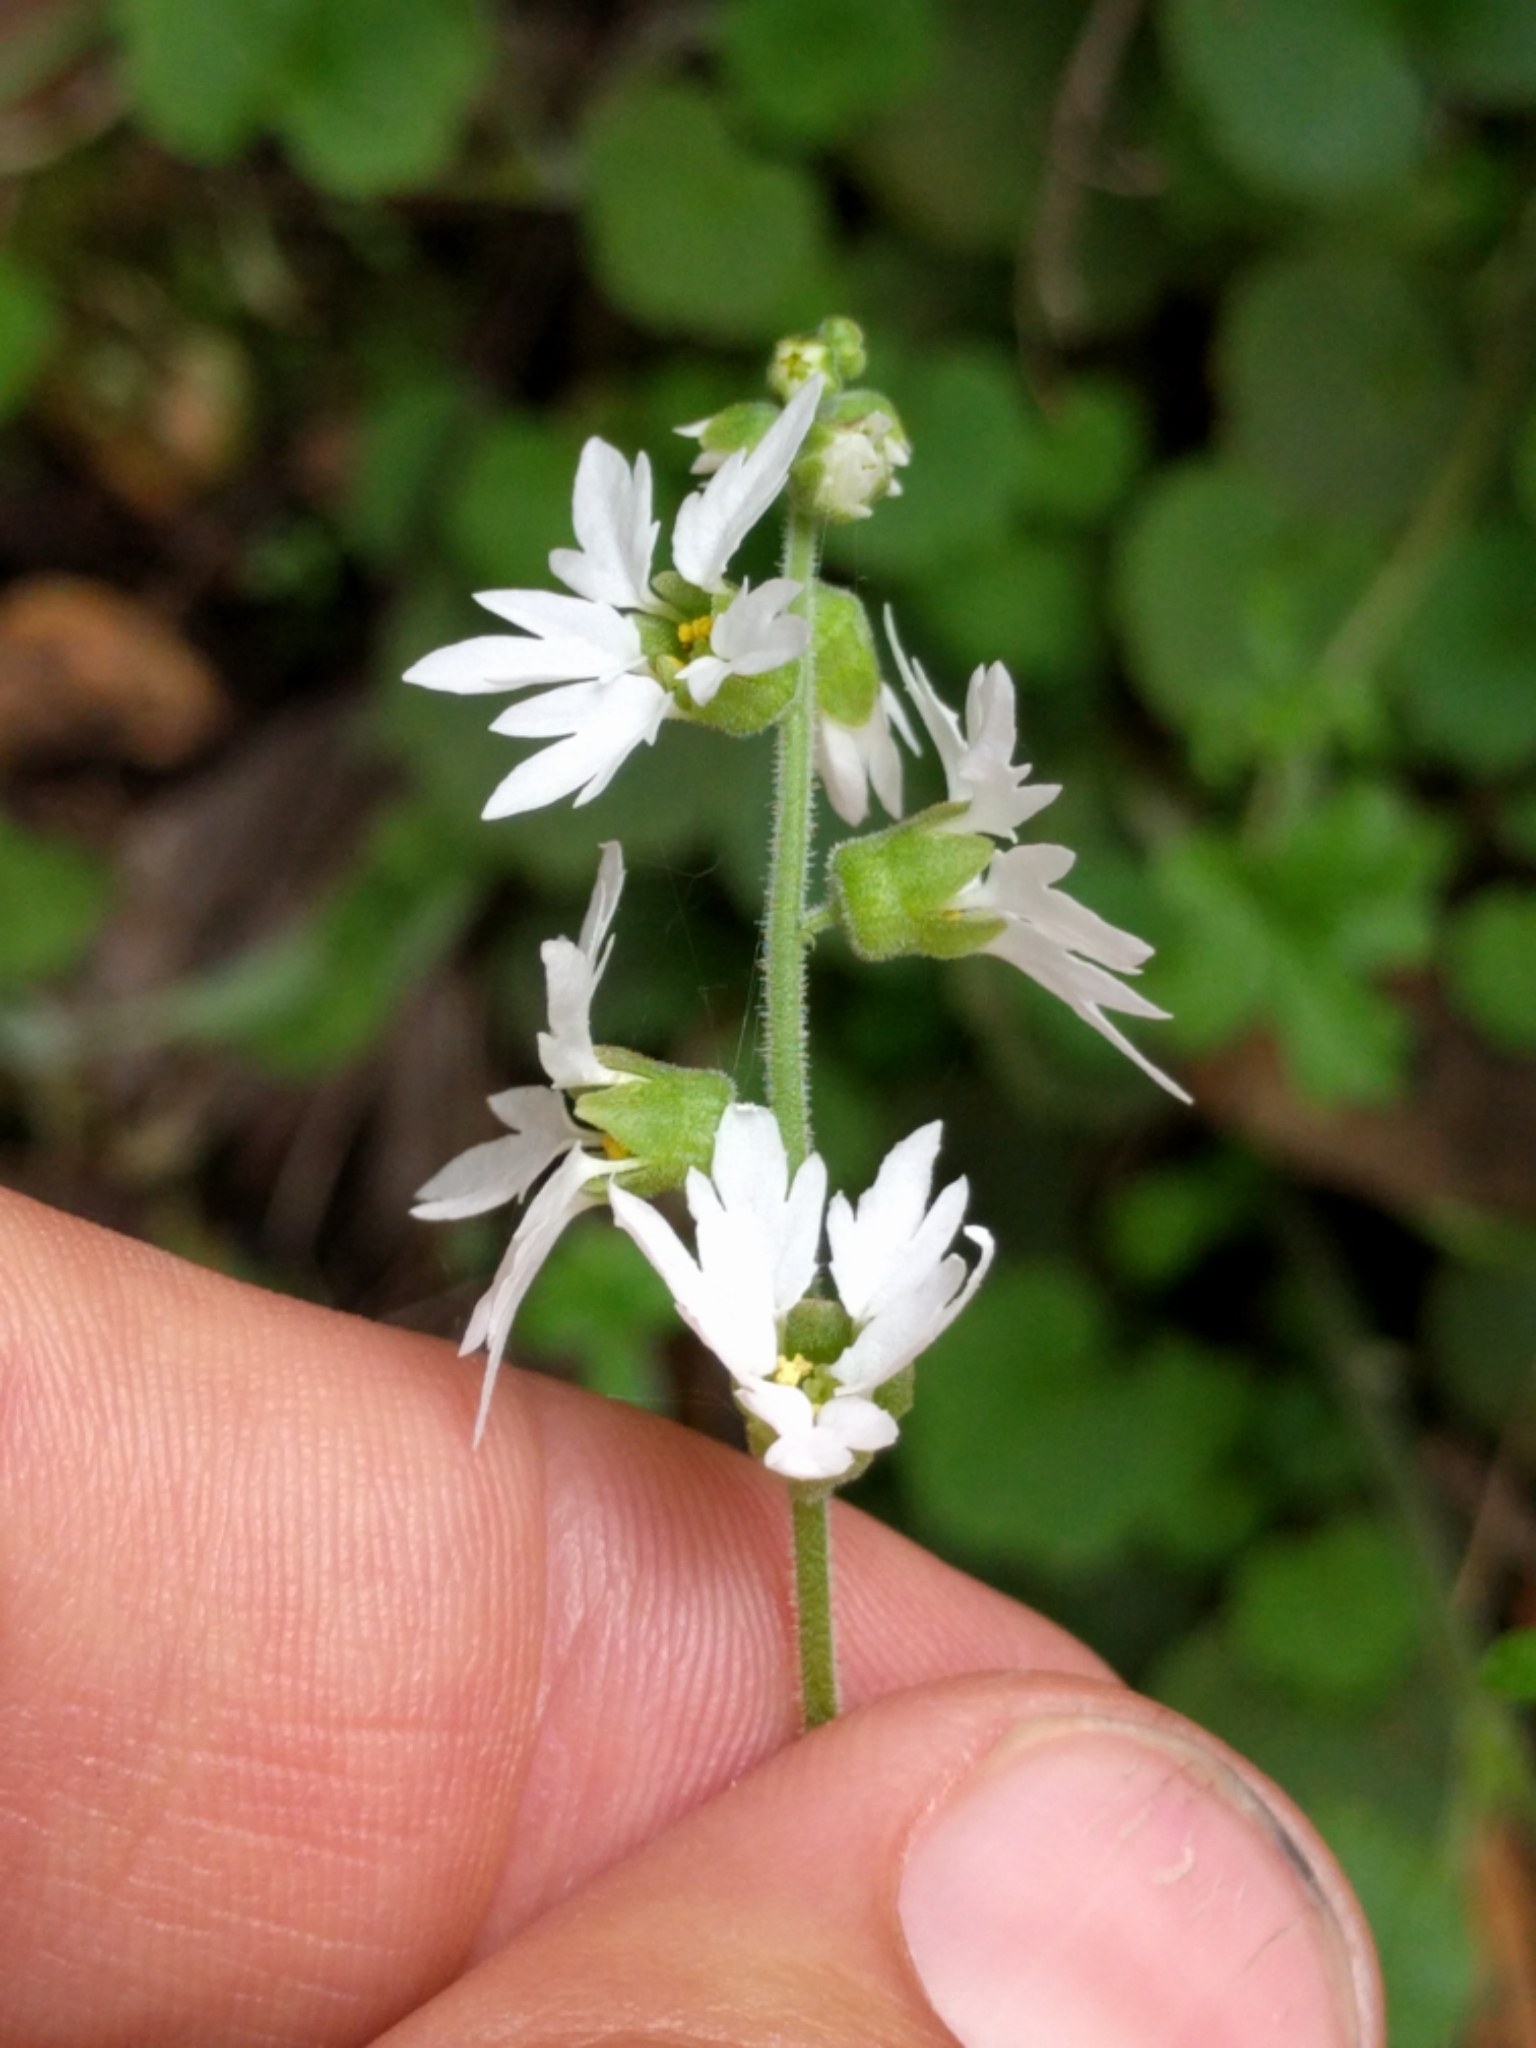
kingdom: Plantae
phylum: Tracheophyta
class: Magnoliopsida
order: Saxifragales
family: Saxifragaceae
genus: Lithophragma
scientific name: Lithophragma heterophyllum
